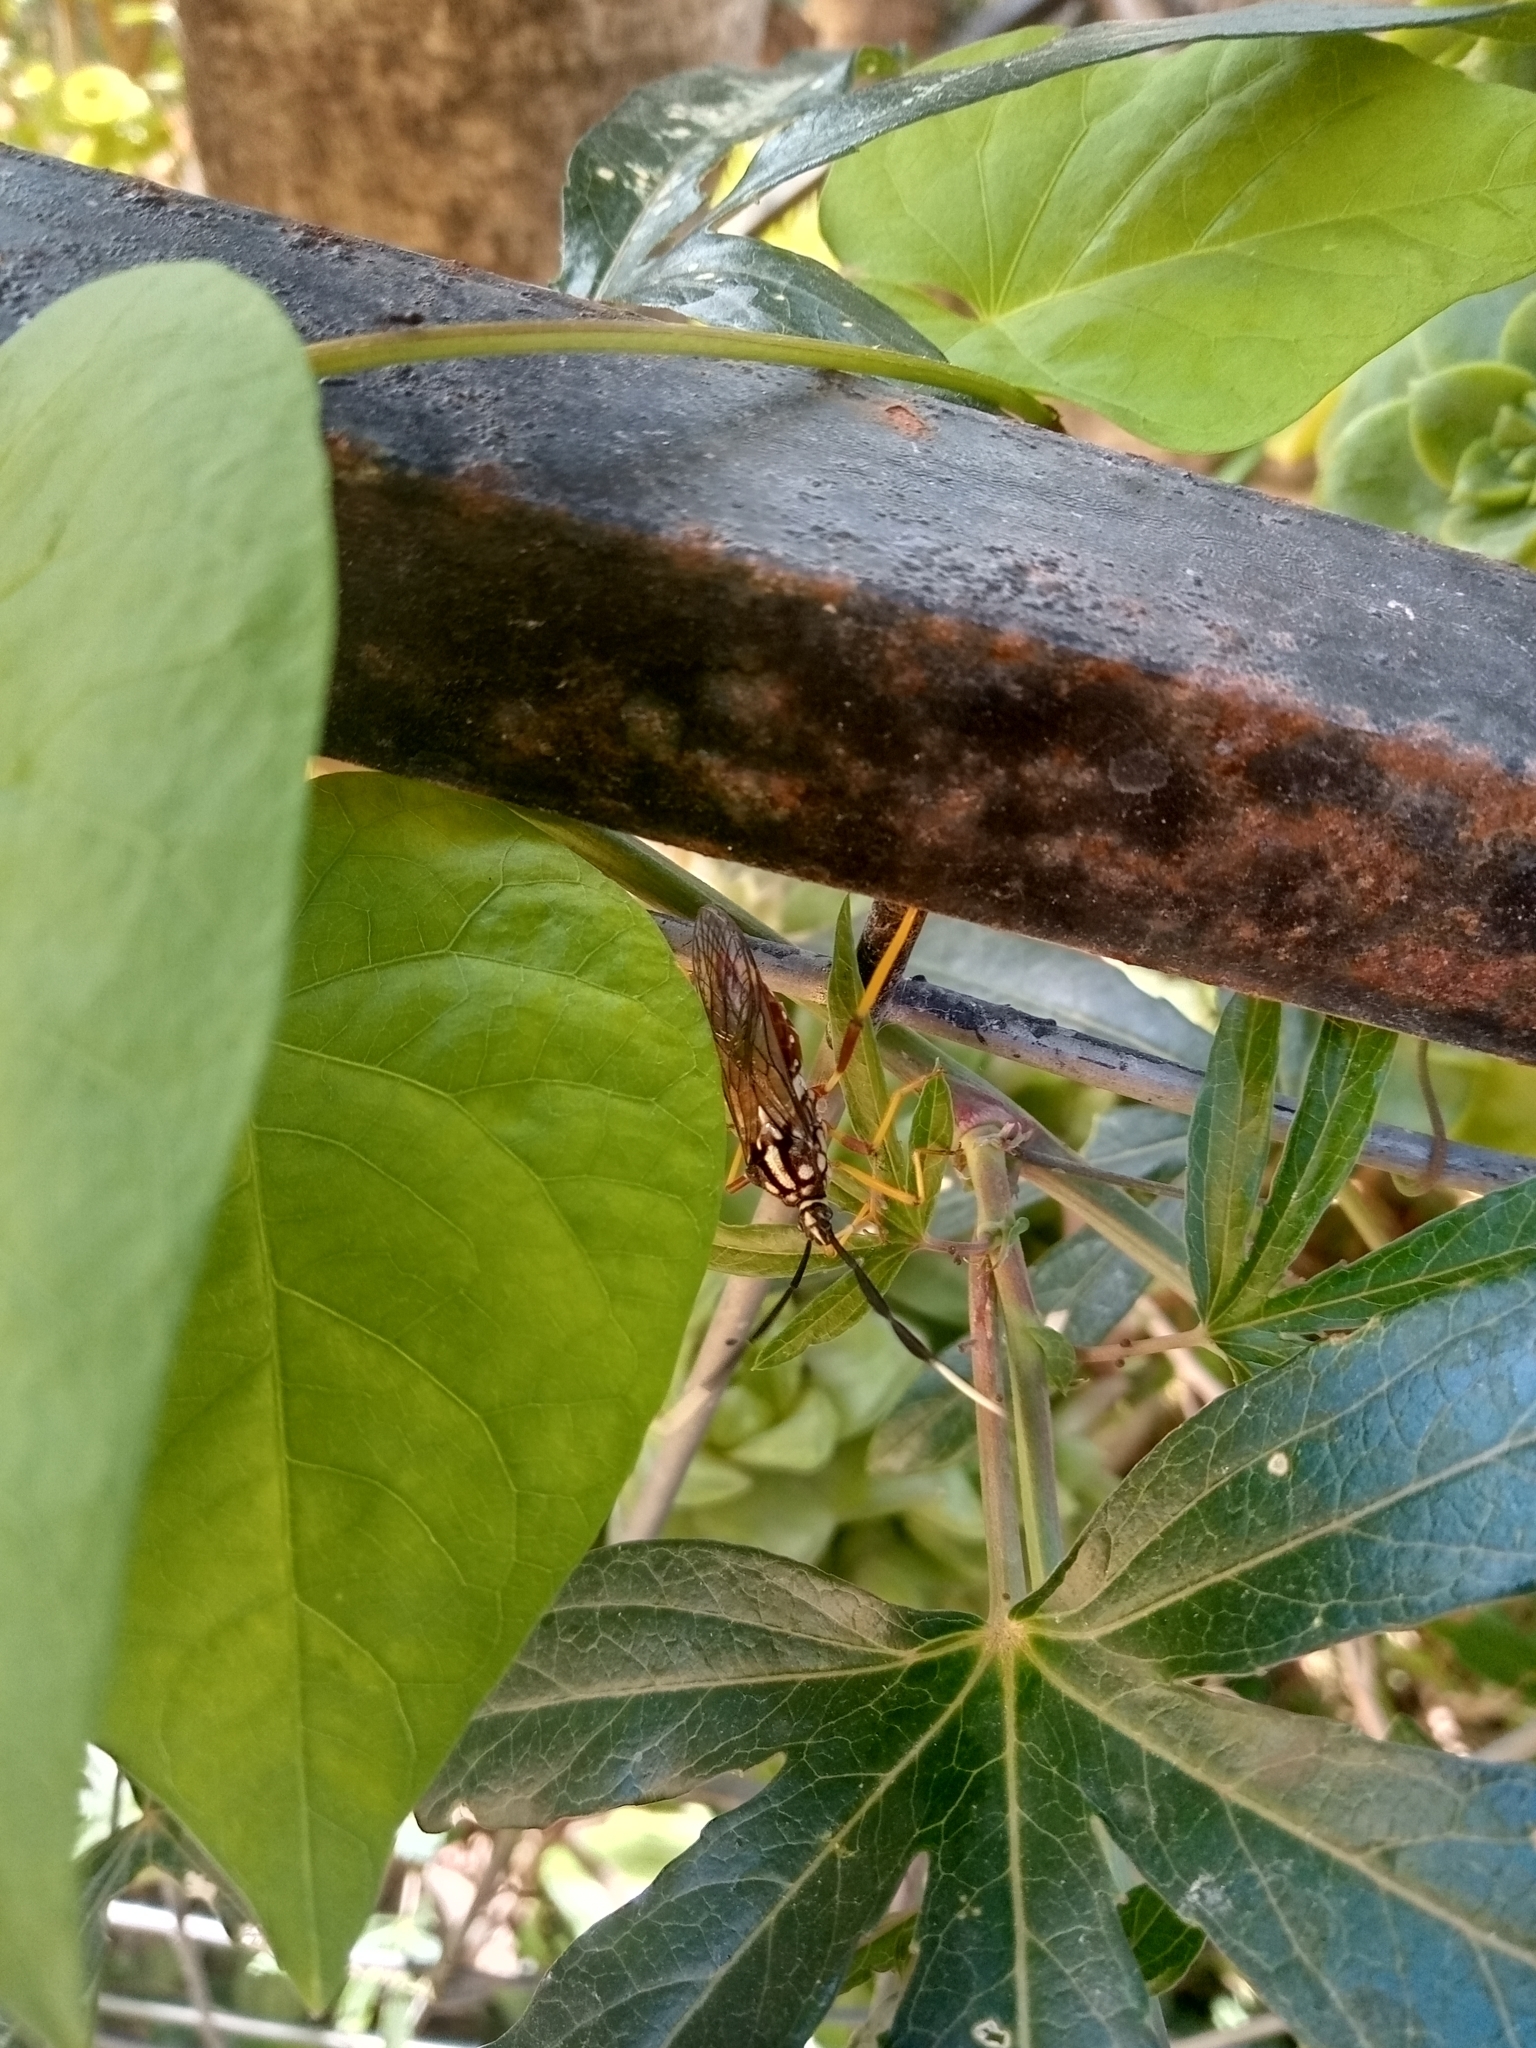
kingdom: Animalia
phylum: Arthropoda
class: Insecta
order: Hemiptera
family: Coreidae
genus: Holhymenia
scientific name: Holhymenia histrio
